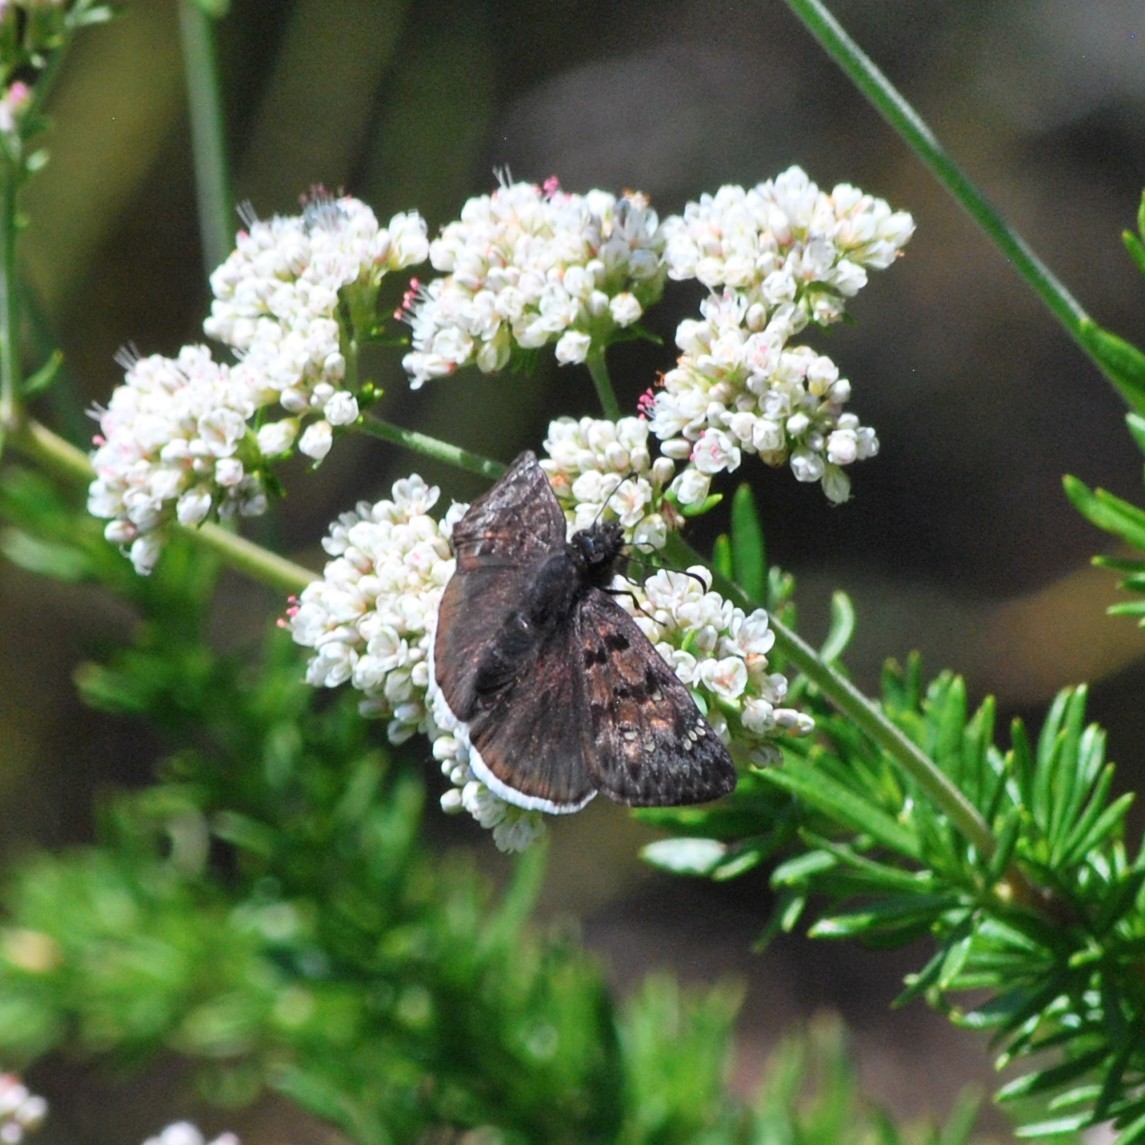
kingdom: Animalia
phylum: Arthropoda
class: Insecta
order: Lepidoptera
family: Hesperiidae
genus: Erynnis
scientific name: Erynnis tristis
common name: Mournful duskywing
